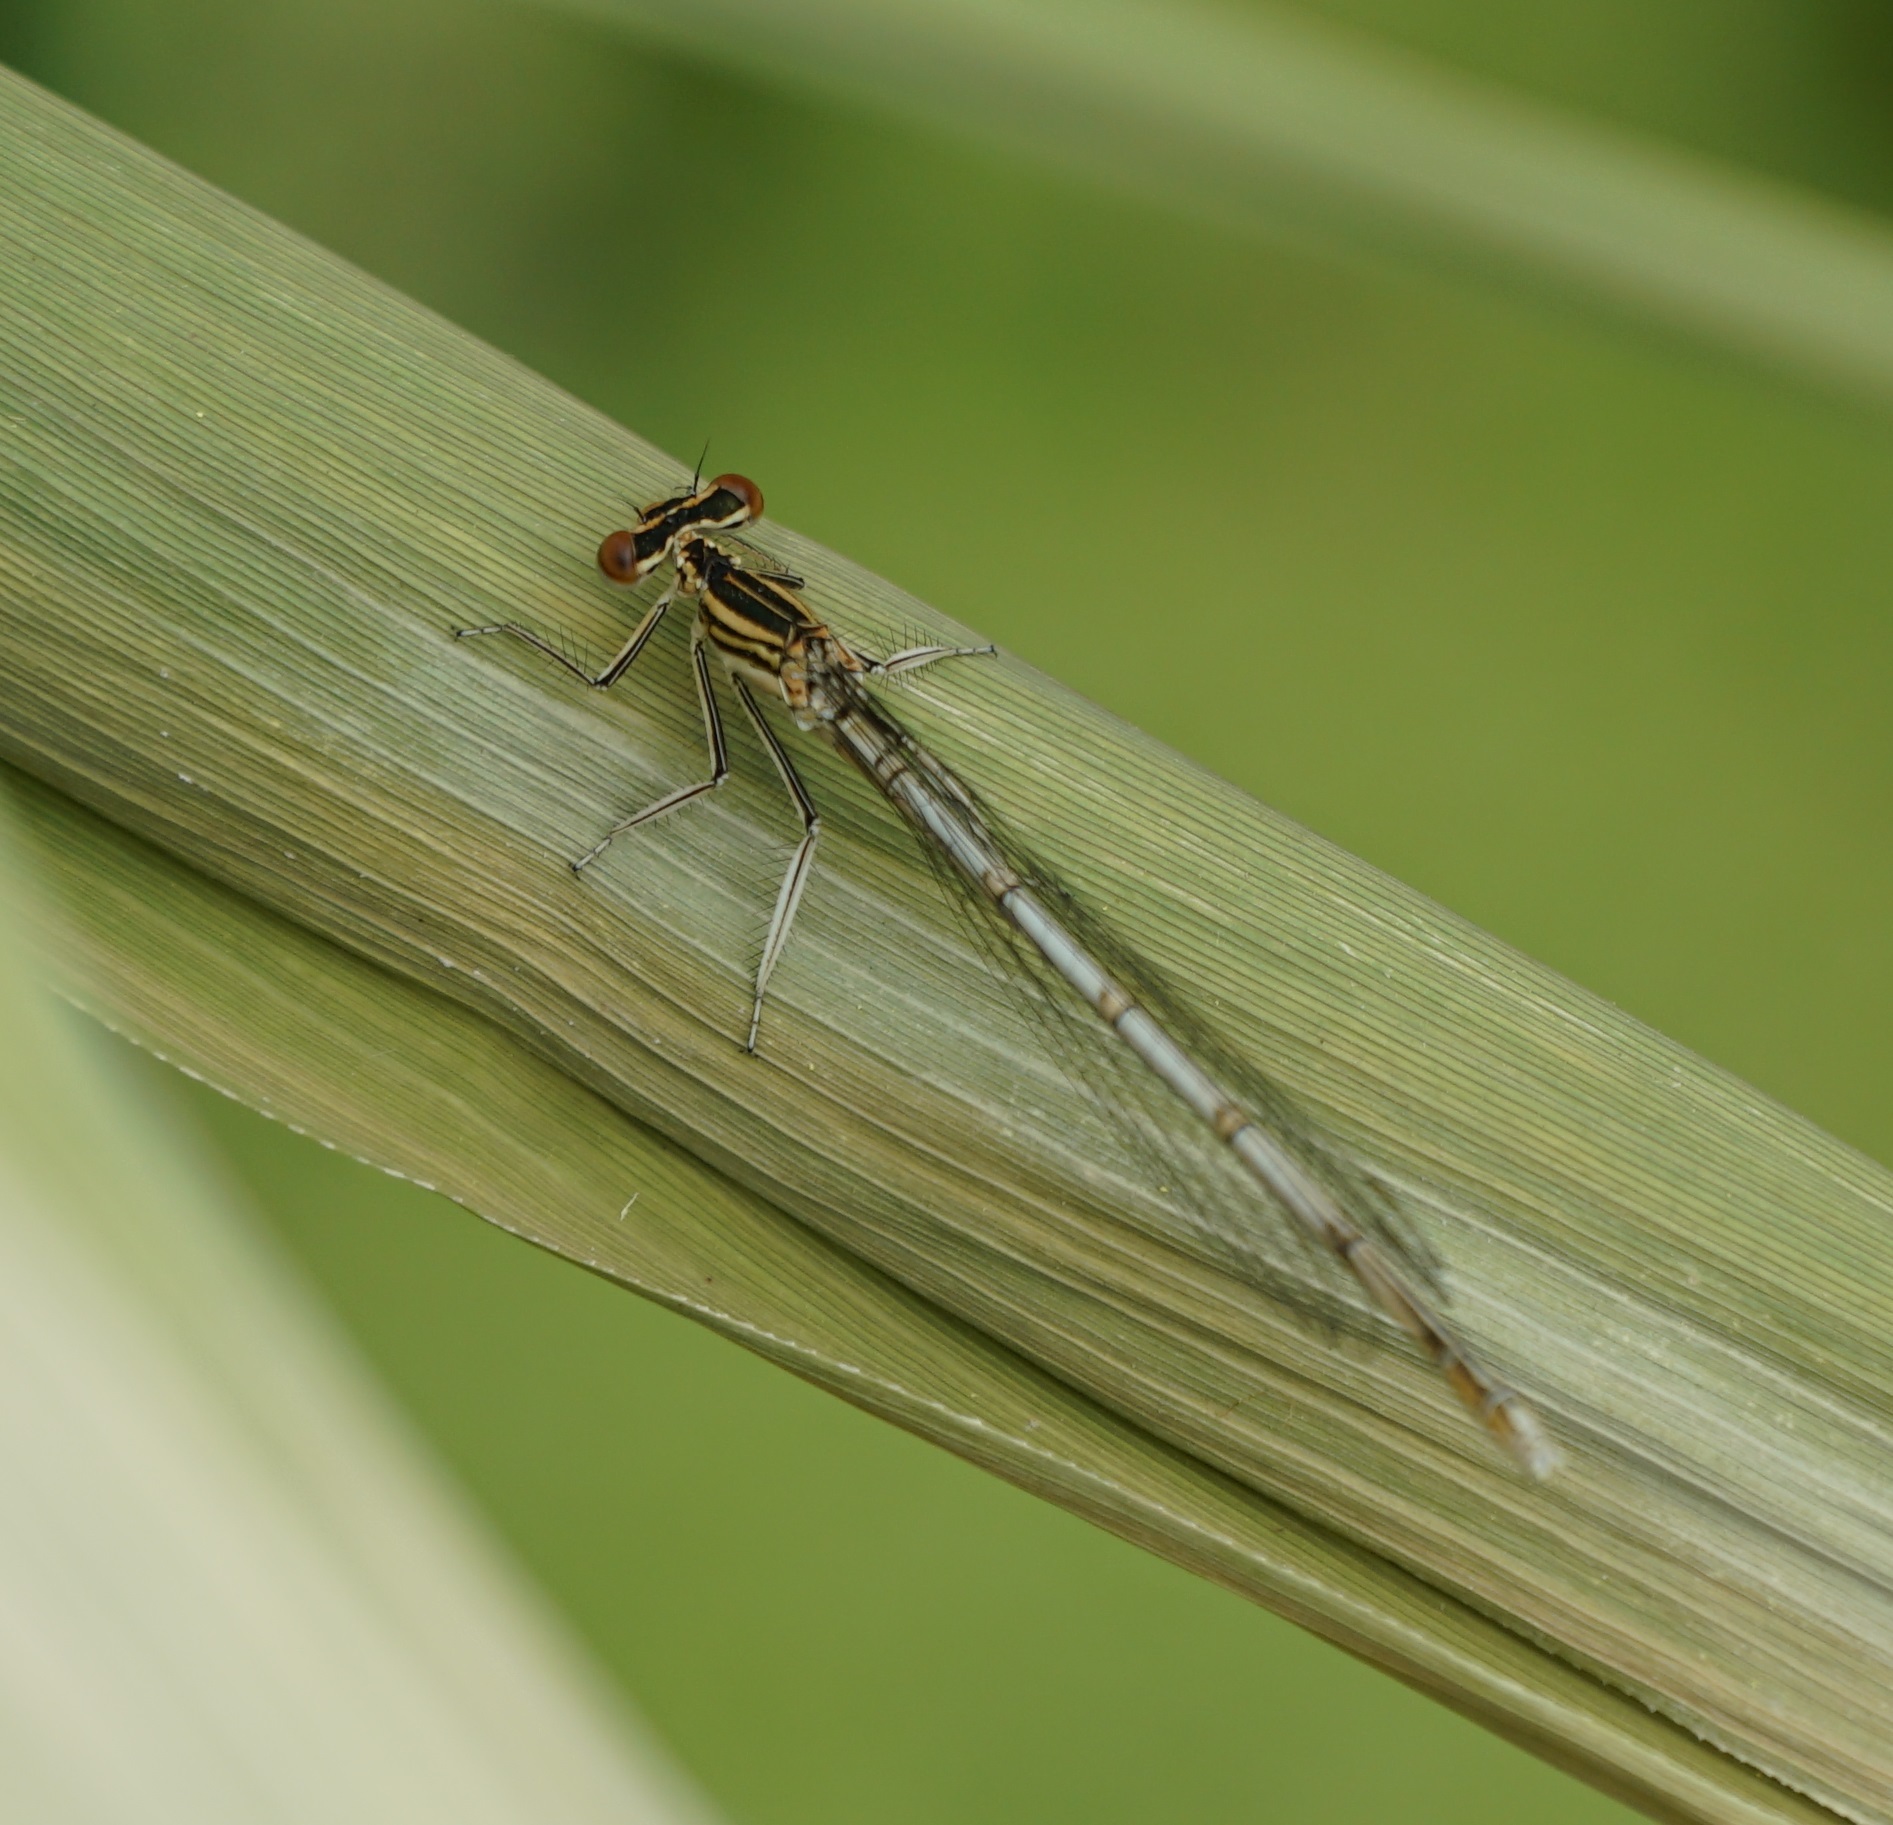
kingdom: Animalia
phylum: Arthropoda
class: Insecta
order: Odonata
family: Platycnemididae
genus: Platycnemis
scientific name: Platycnemis pennipes
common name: White-legged damselfly
